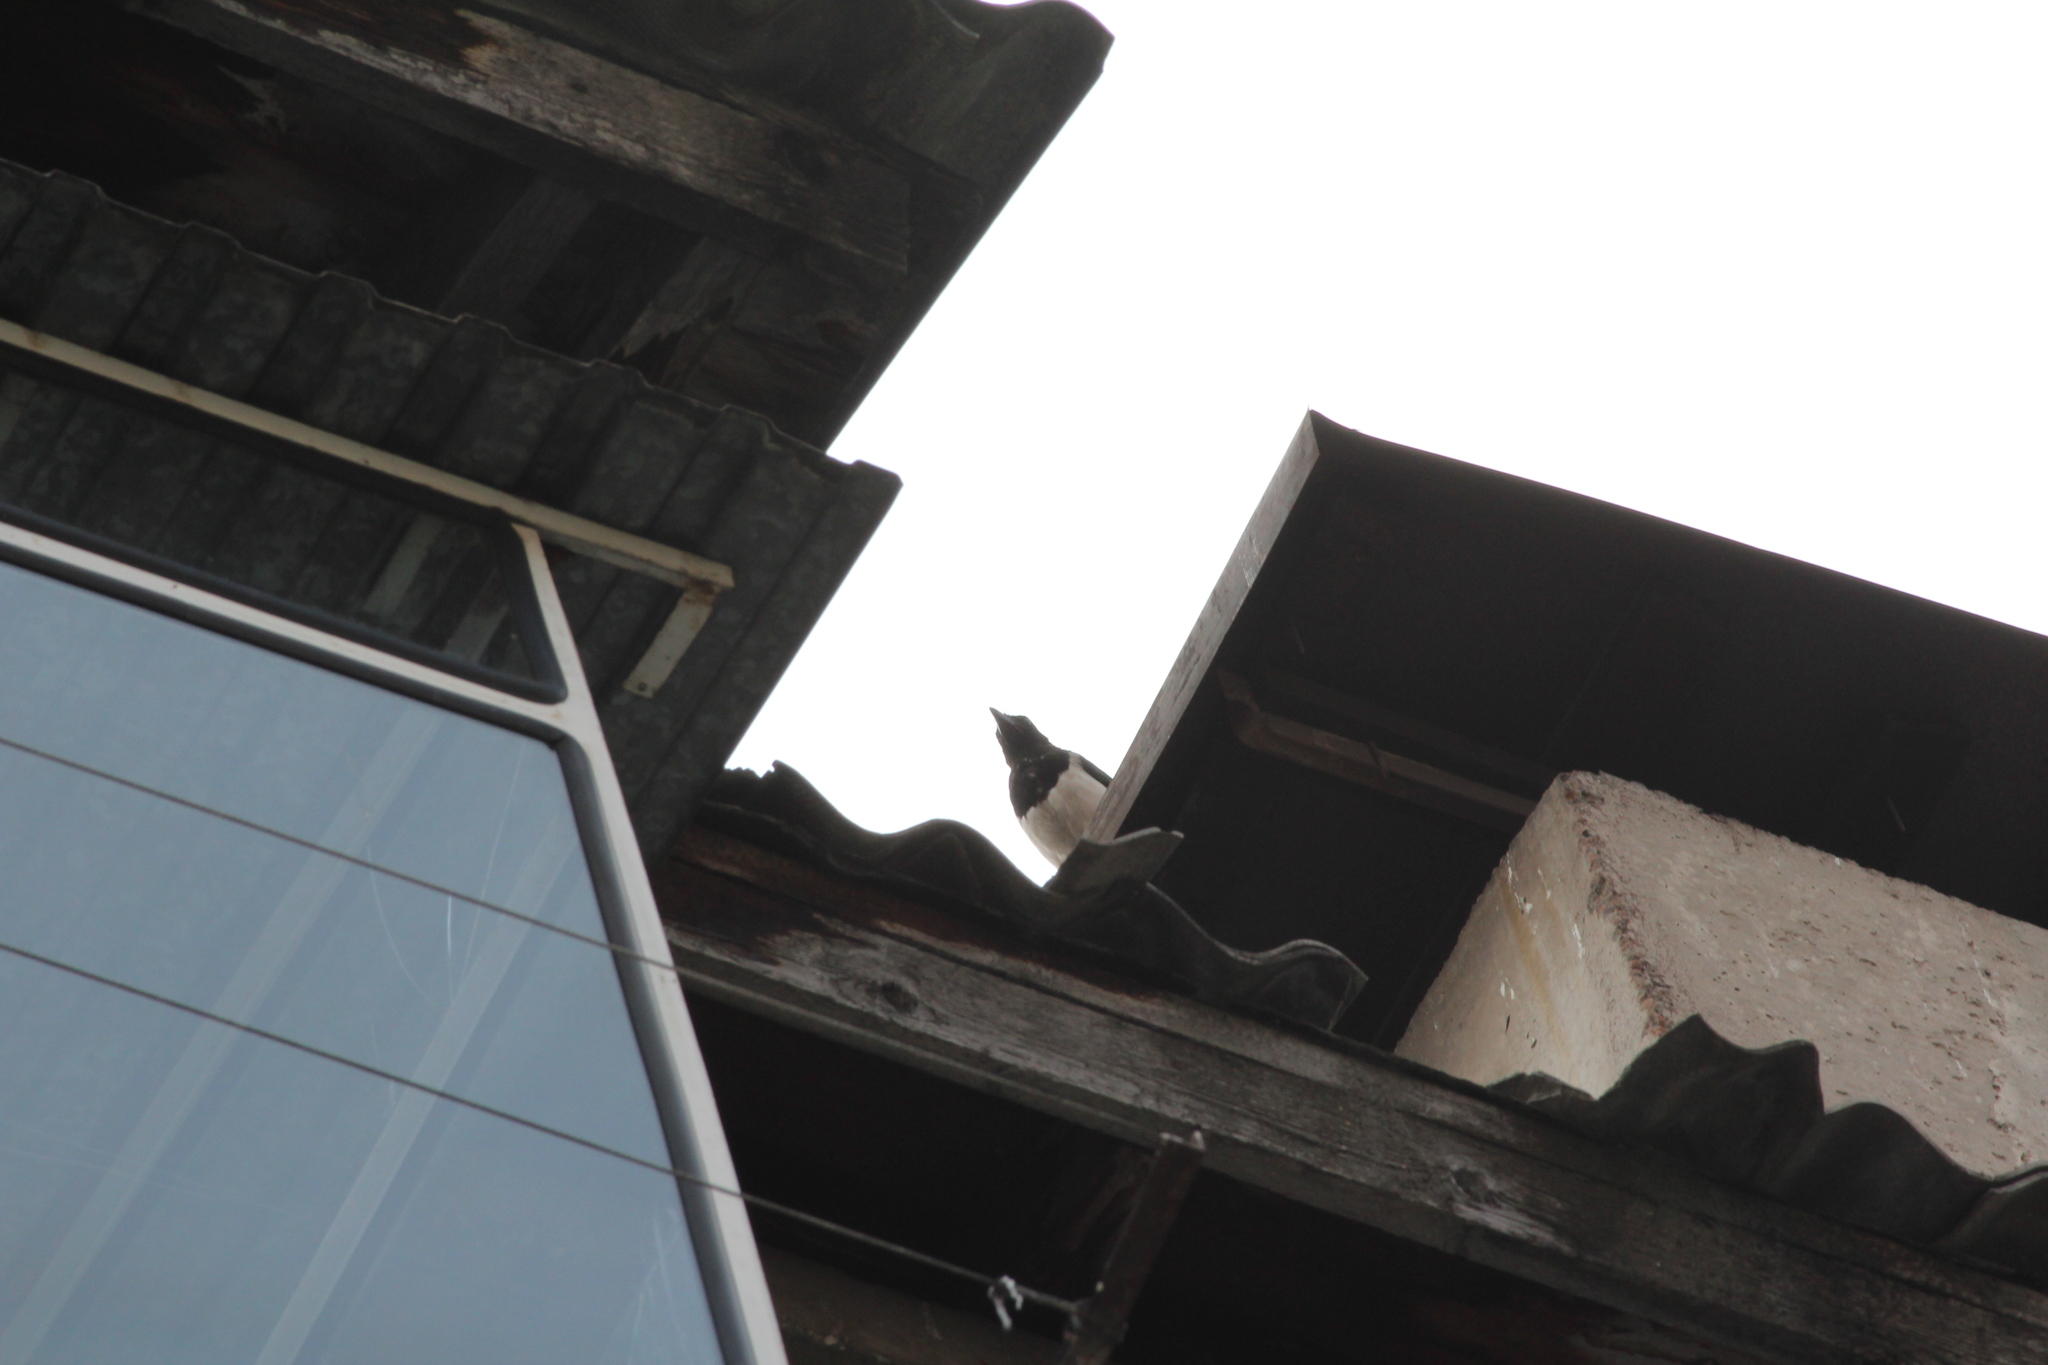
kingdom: Animalia
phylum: Chordata
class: Aves
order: Passeriformes
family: Corvidae
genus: Pica
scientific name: Pica pica
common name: Eurasian magpie
